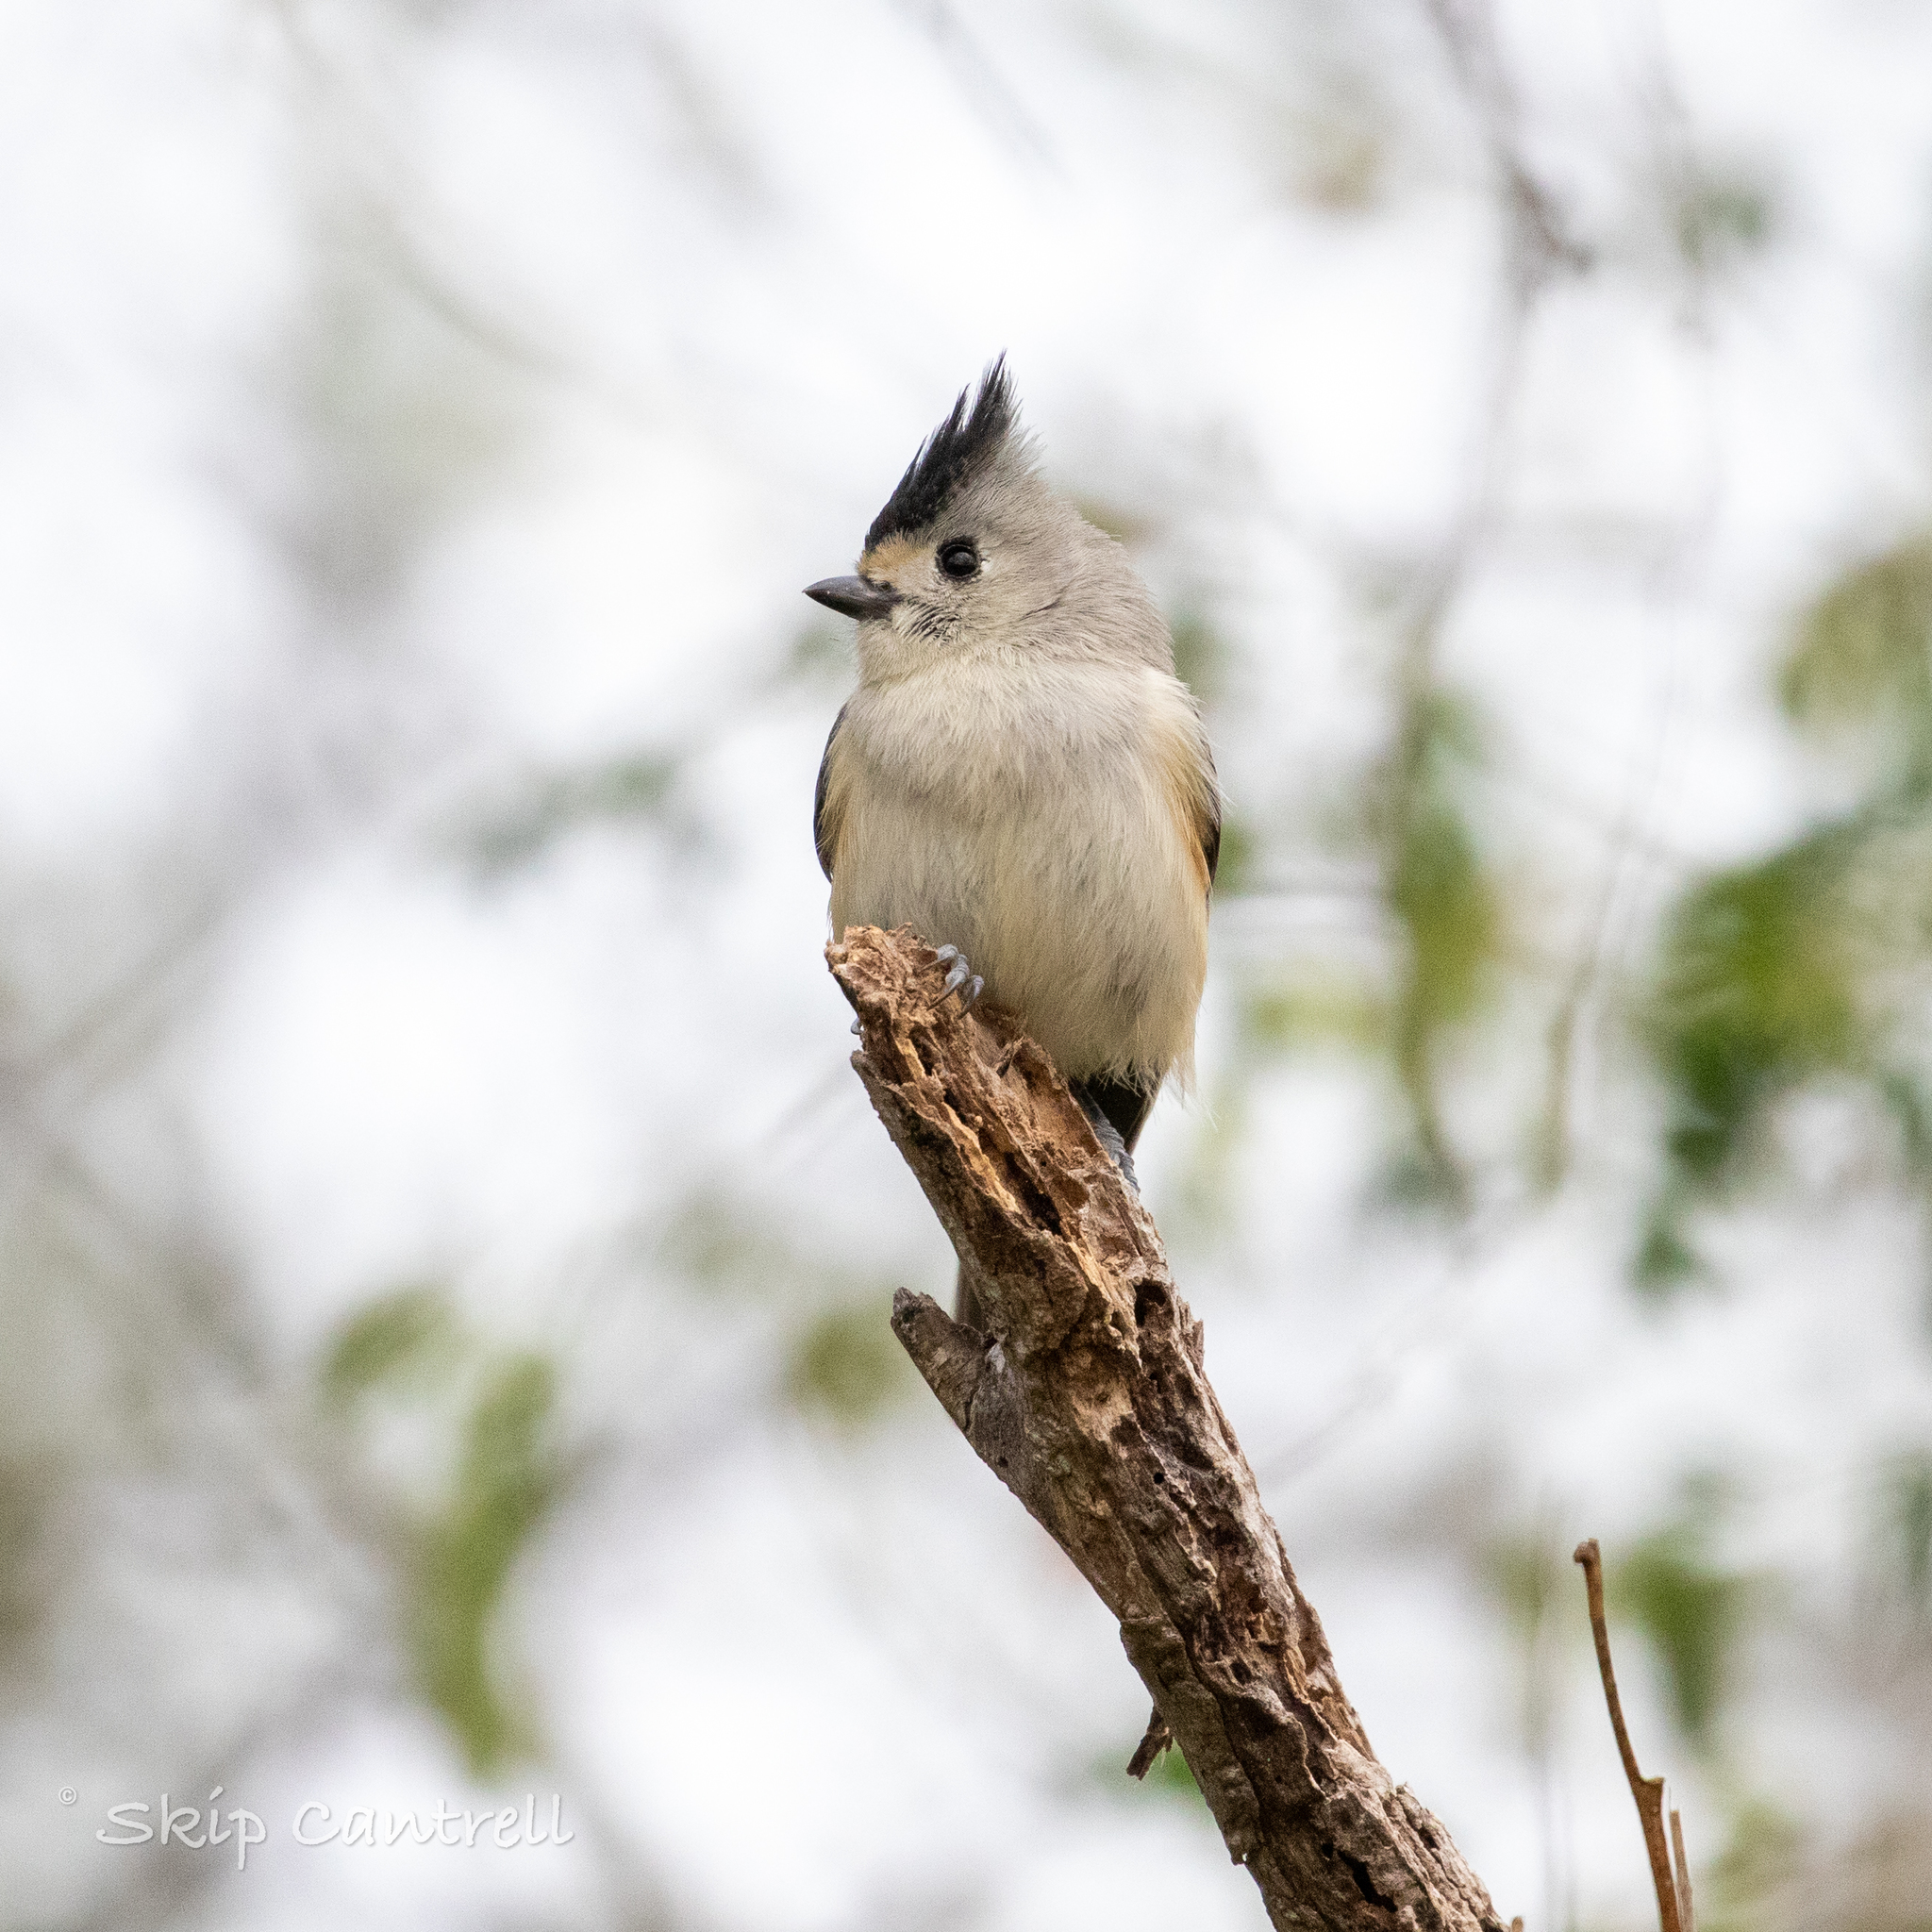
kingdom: Animalia
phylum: Chordata
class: Aves
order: Passeriformes
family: Paridae
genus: Baeolophus
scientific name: Baeolophus atricristatus
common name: Black-crested titmouse
